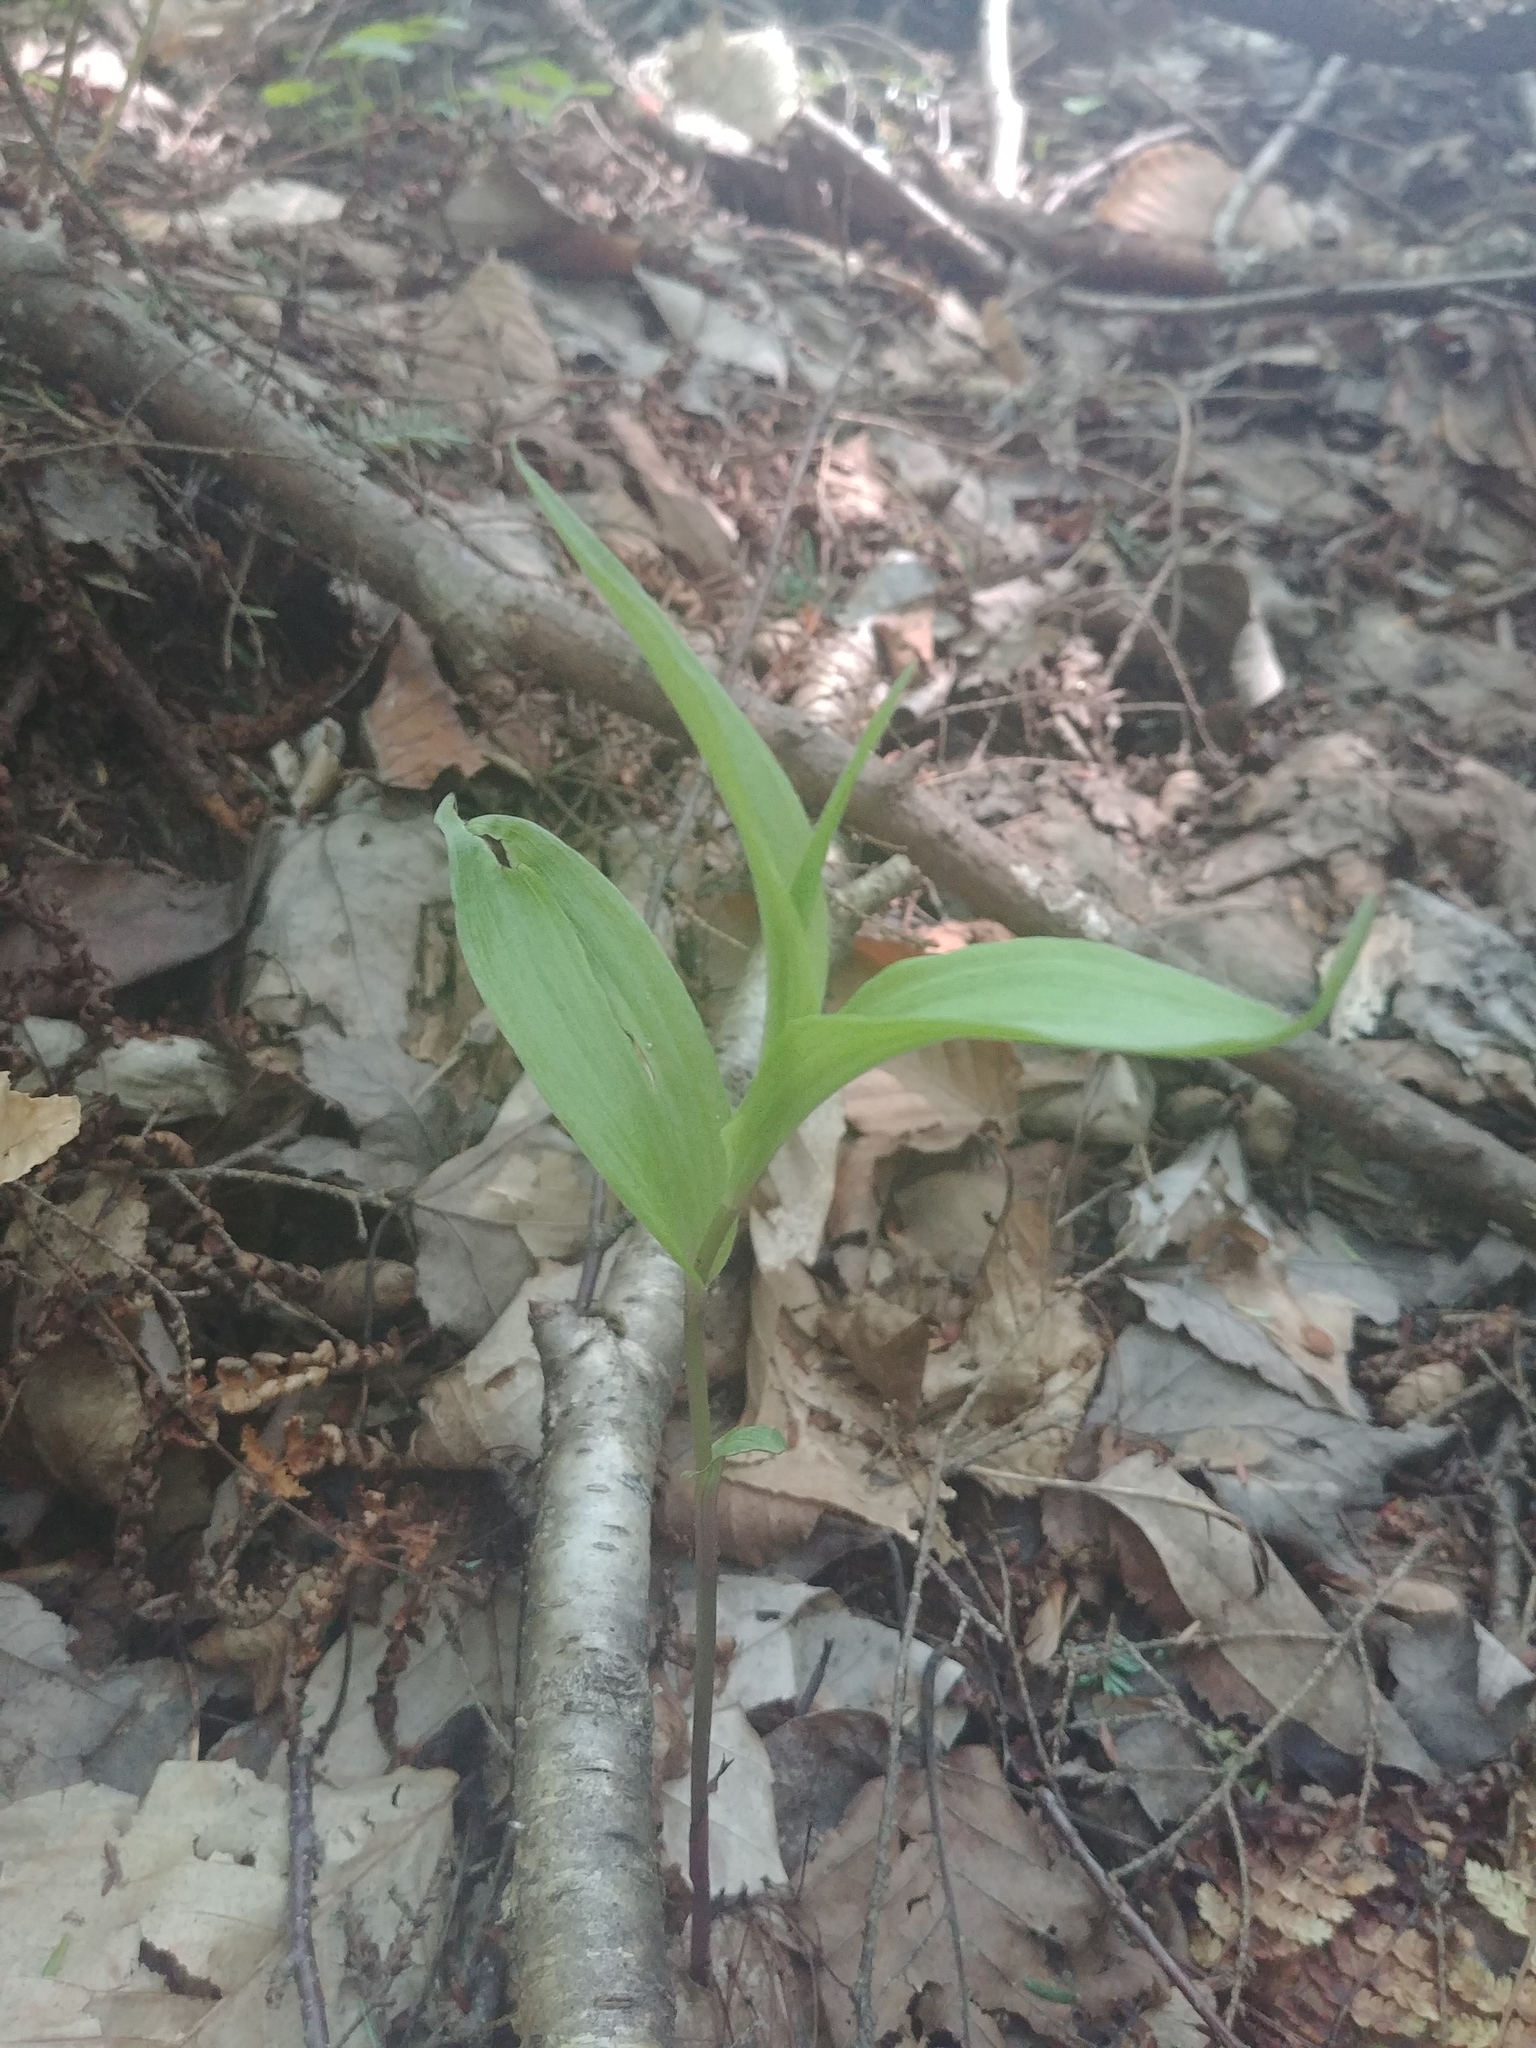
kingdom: Plantae
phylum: Tracheophyta
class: Liliopsida
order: Asparagales
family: Orchidaceae
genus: Epipactis
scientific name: Epipactis helleborine
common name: Broad-leaved helleborine
